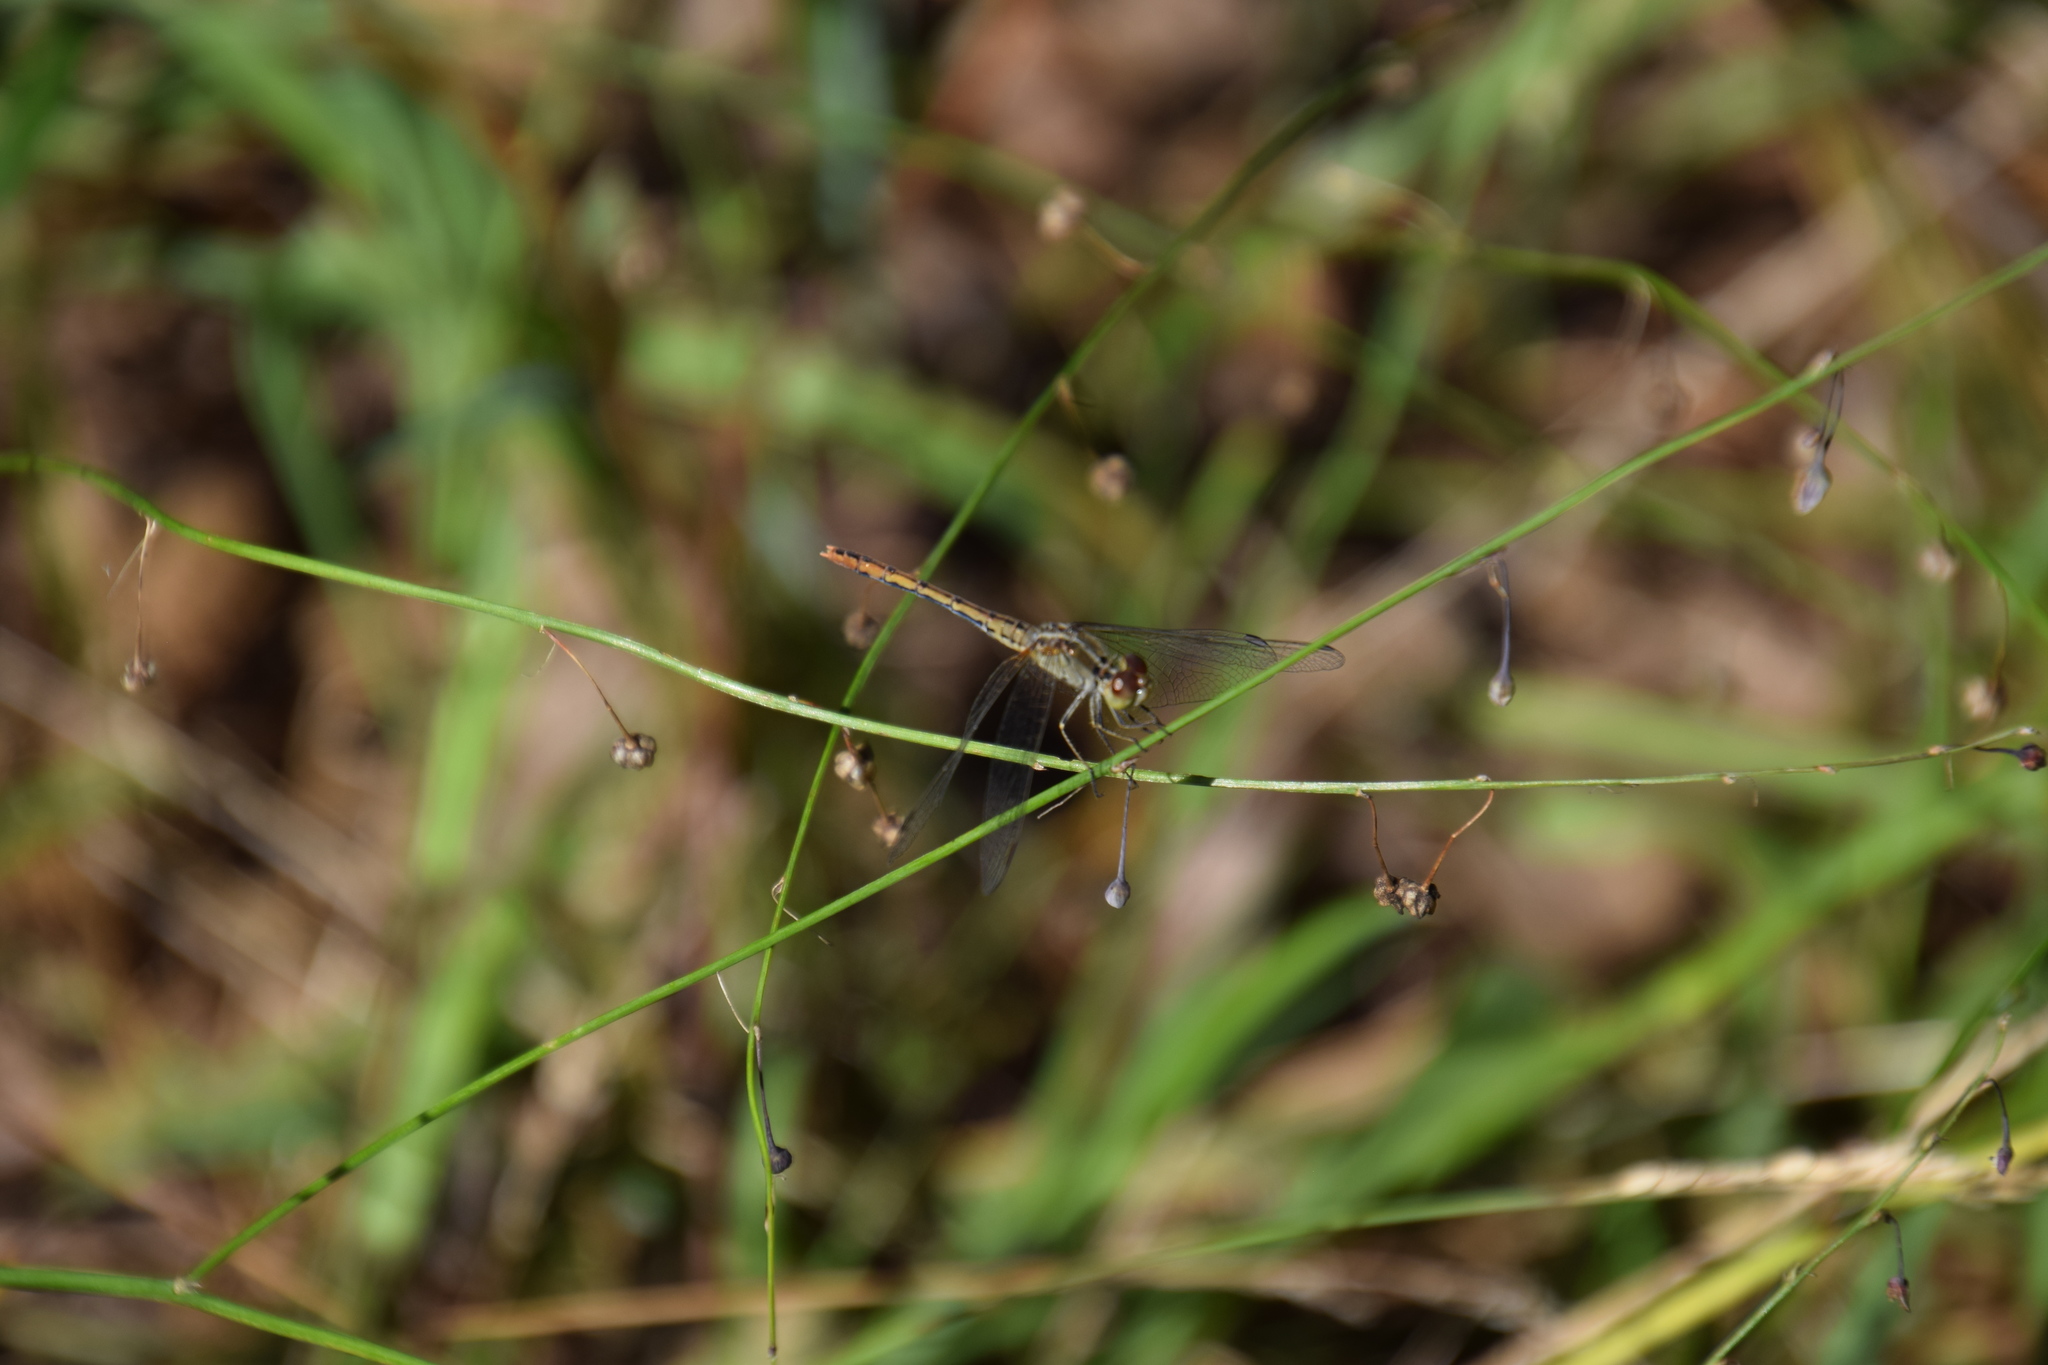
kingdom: Animalia
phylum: Arthropoda
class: Insecta
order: Odonata
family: Libellulidae
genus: Diplacodes
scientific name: Diplacodes bipunctata
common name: Red percher dragonfly
